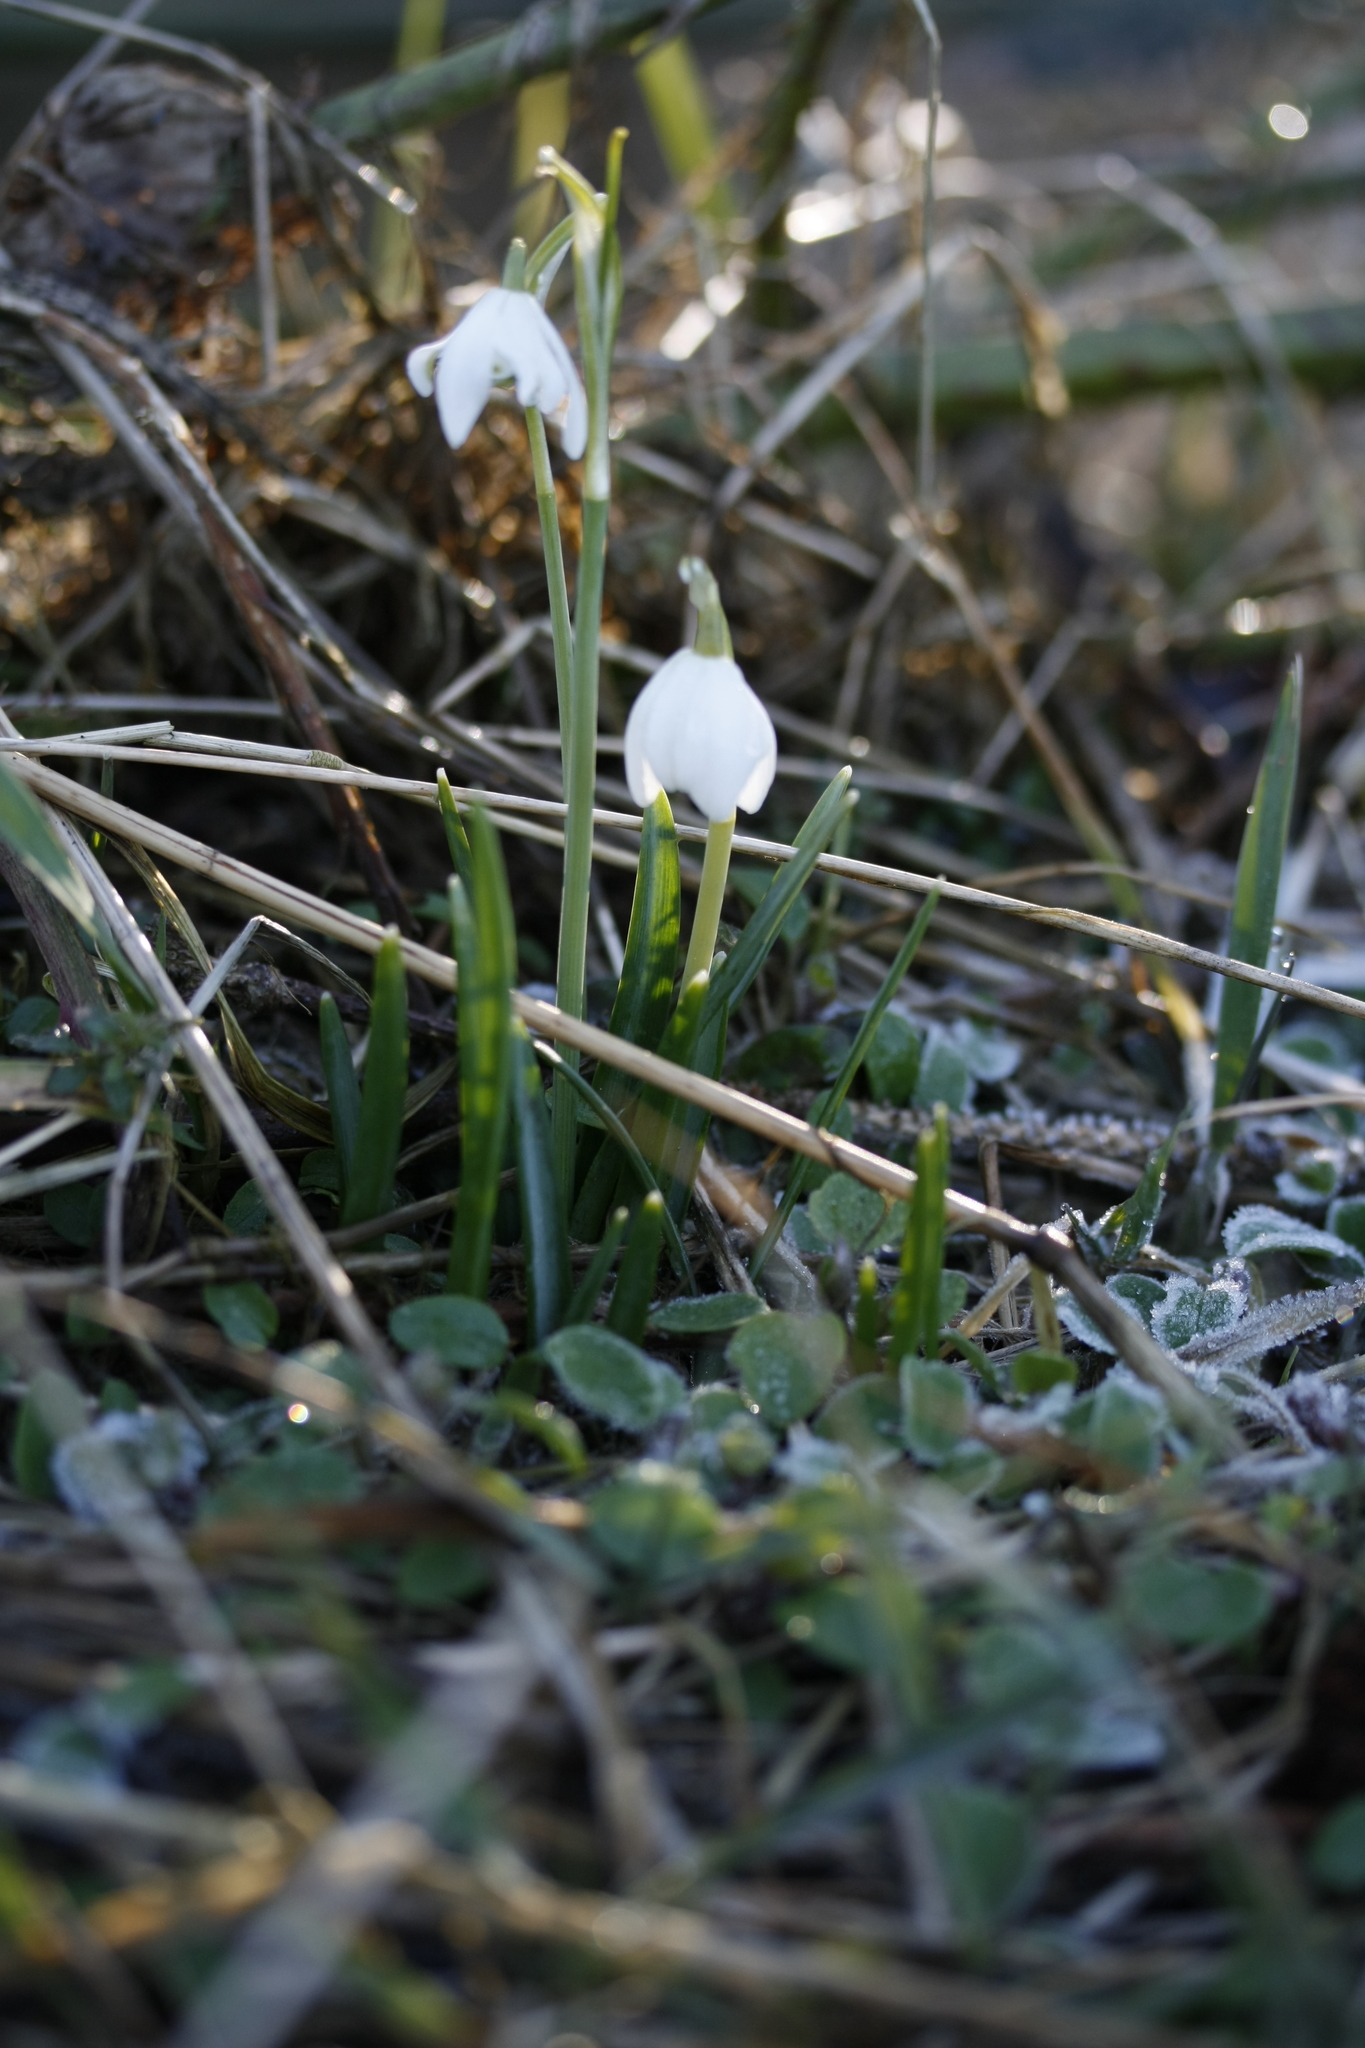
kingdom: Plantae
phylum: Tracheophyta
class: Liliopsida
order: Asparagales
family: Amaryllidaceae
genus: Galanthus
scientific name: Galanthus nivalis
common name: Snowdrop
